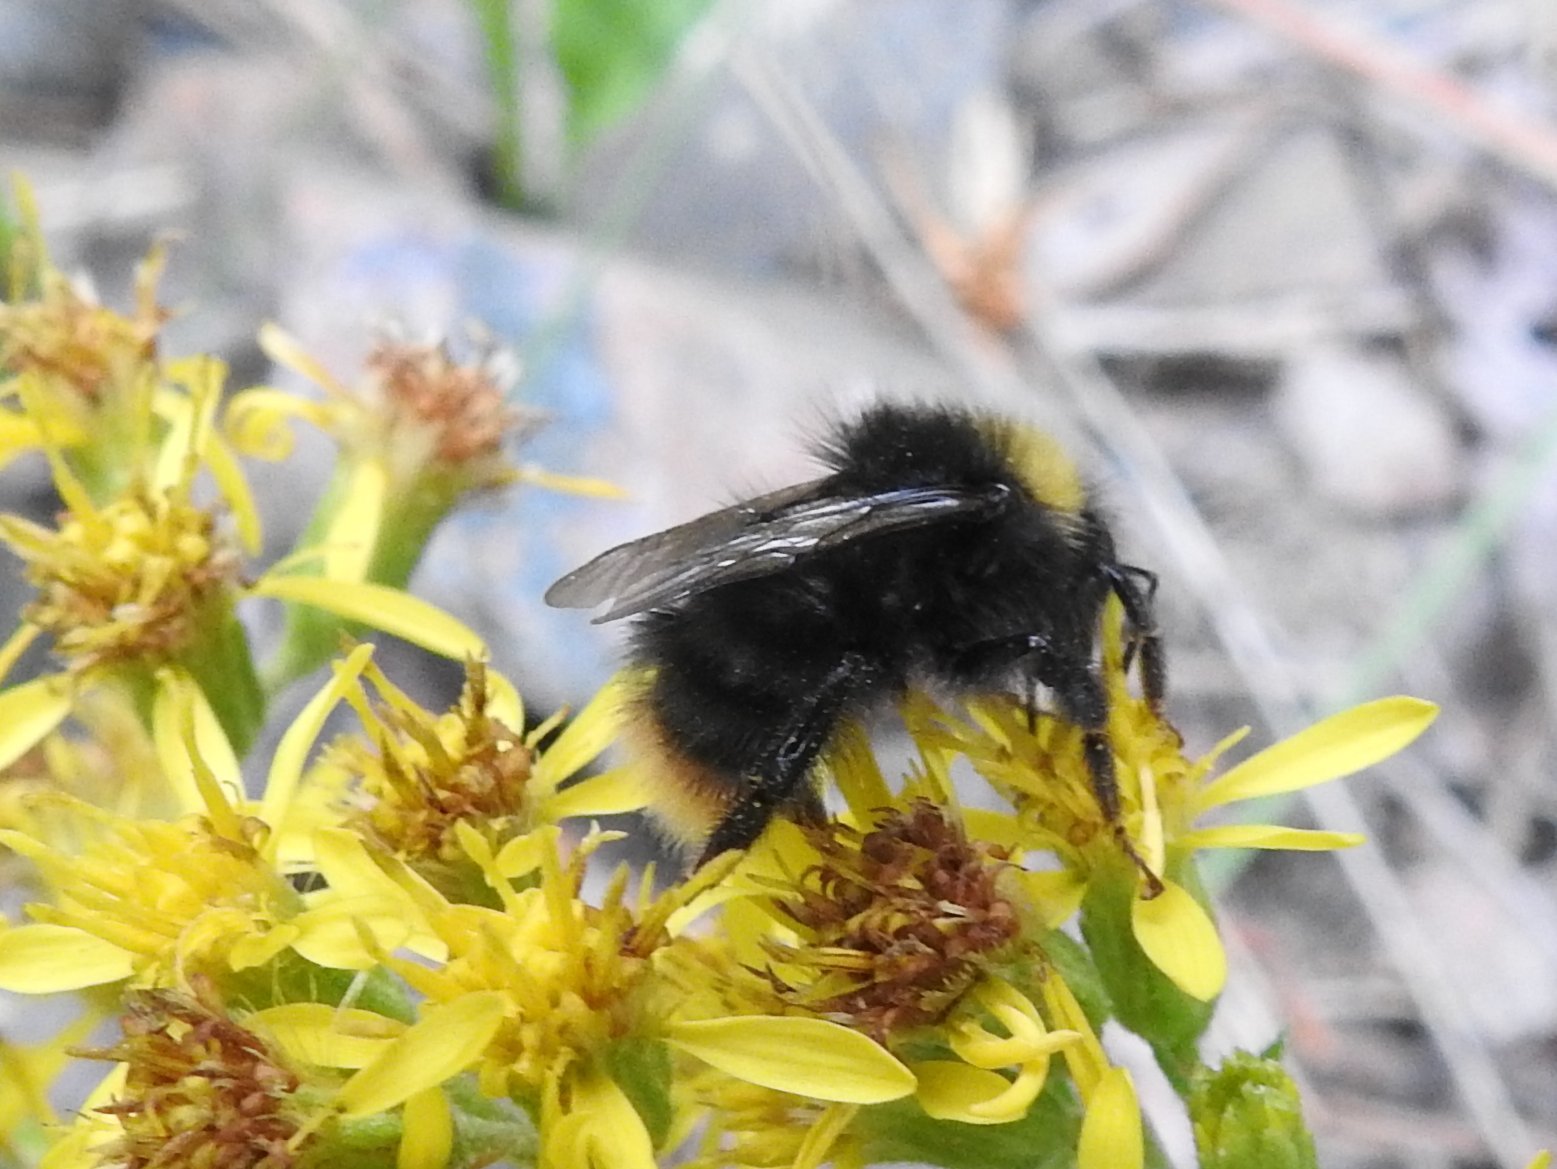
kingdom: Animalia
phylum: Arthropoda
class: Insecta
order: Hymenoptera
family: Apidae
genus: Bombus
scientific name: Bombus pratorum
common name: Early humble-bee
